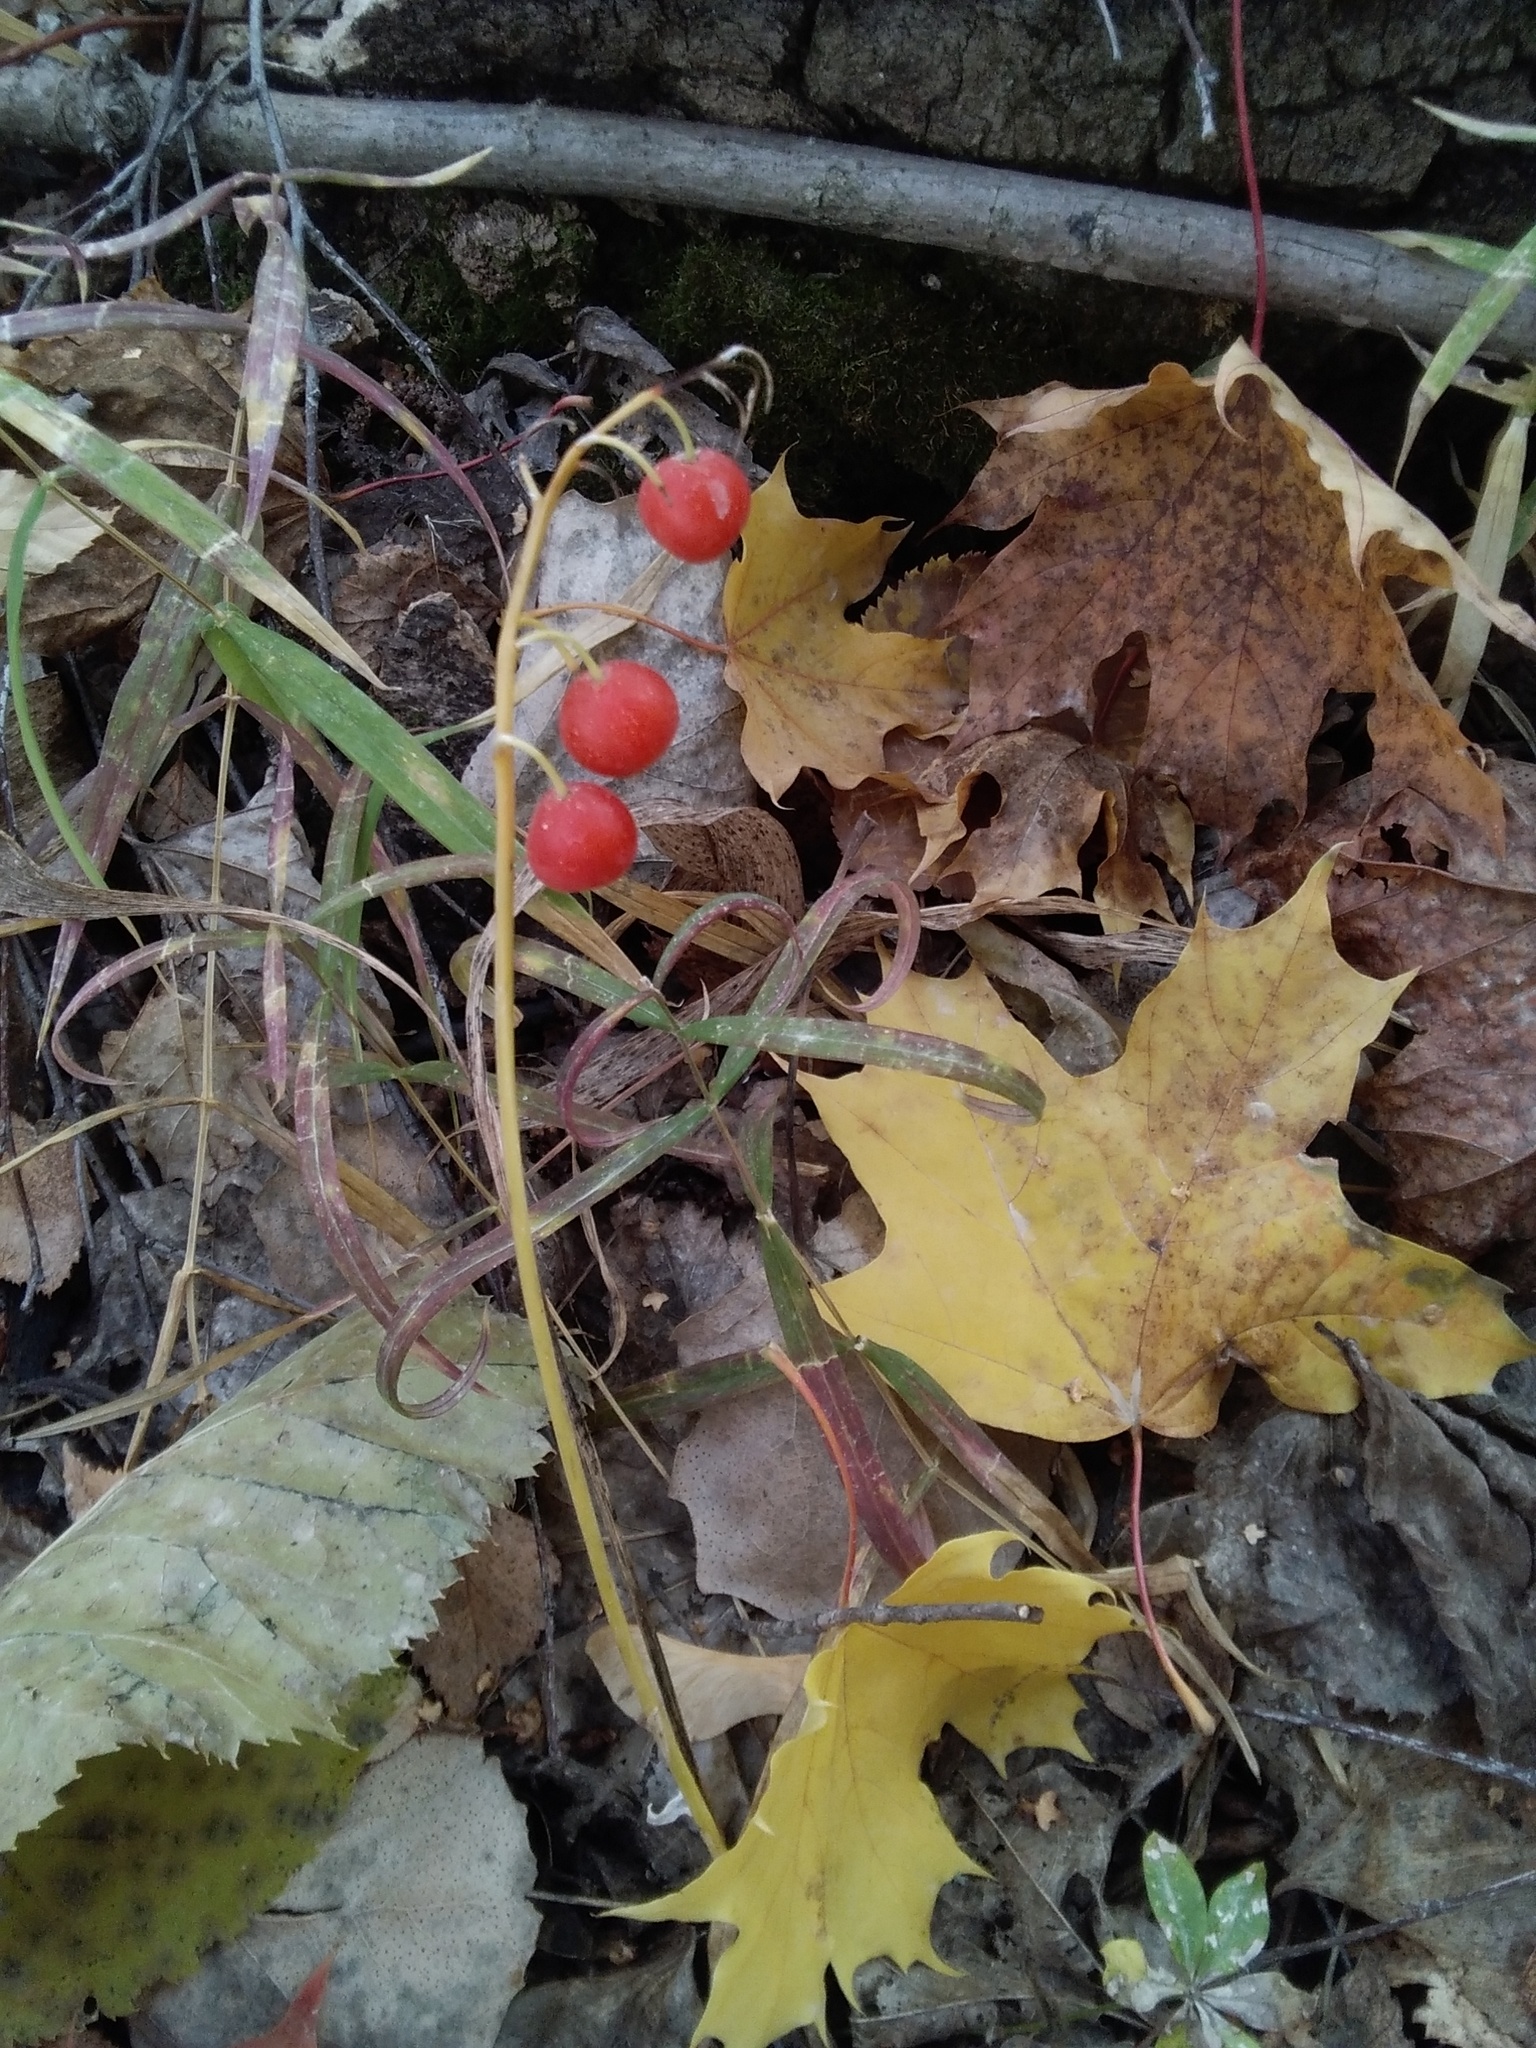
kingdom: Plantae
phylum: Tracheophyta
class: Liliopsida
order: Asparagales
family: Asparagaceae
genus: Convallaria
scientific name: Convallaria majalis
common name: Lily-of-the-valley
